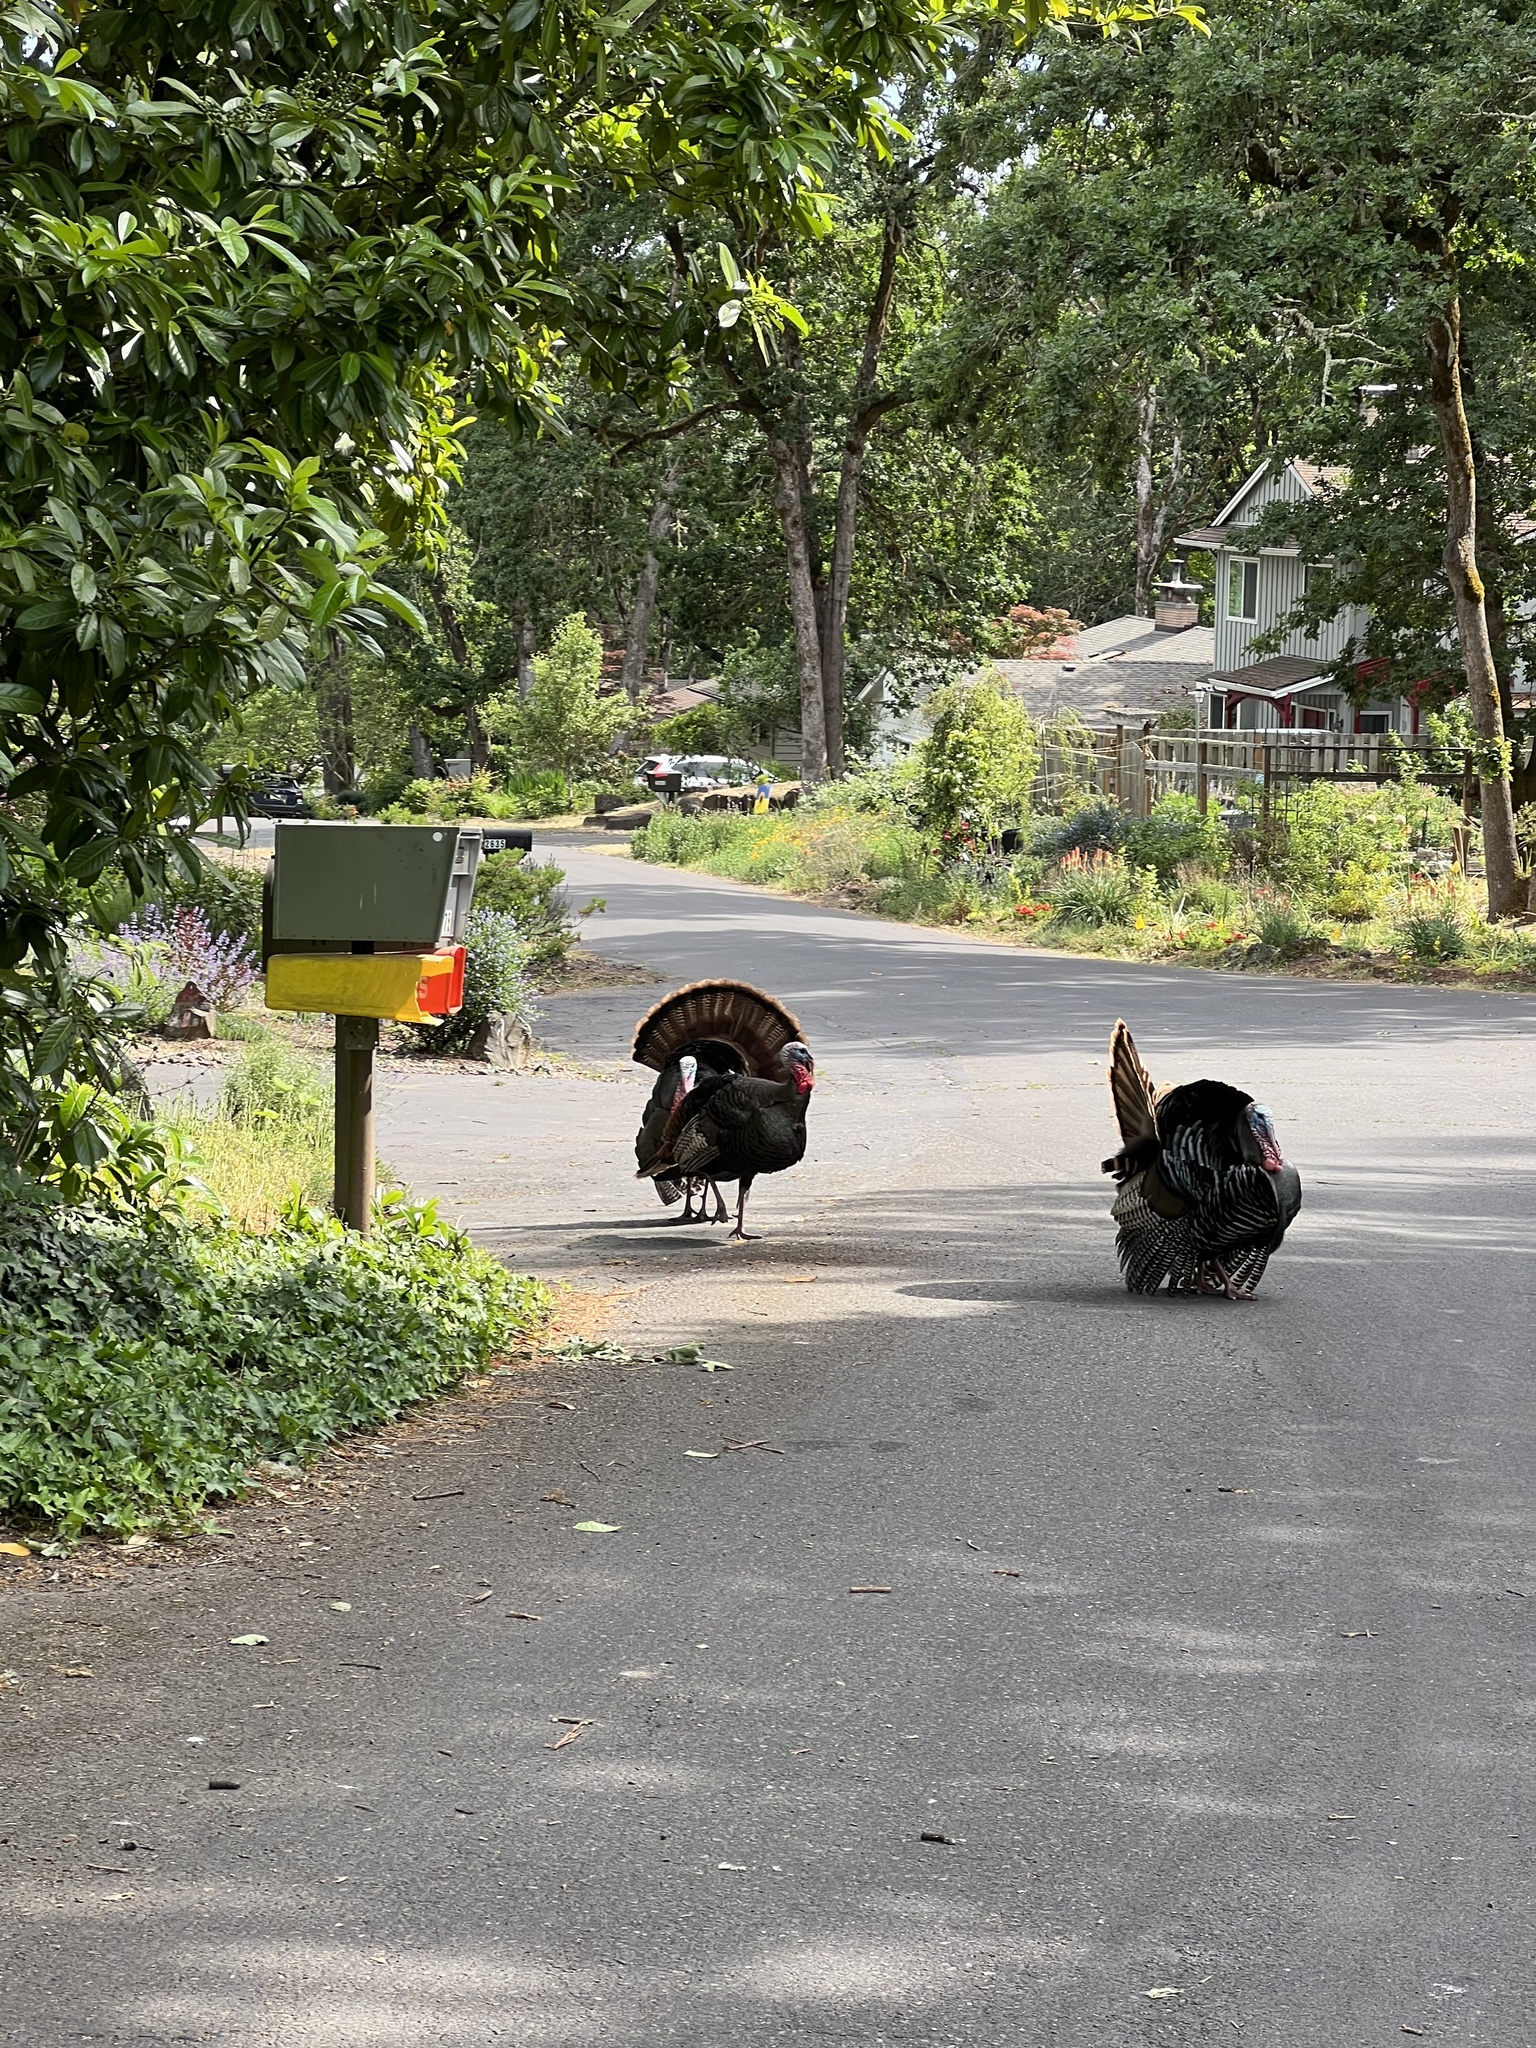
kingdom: Animalia
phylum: Chordata
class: Aves
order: Galliformes
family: Phasianidae
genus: Meleagris
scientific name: Meleagris gallopavo
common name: Wild turkey
